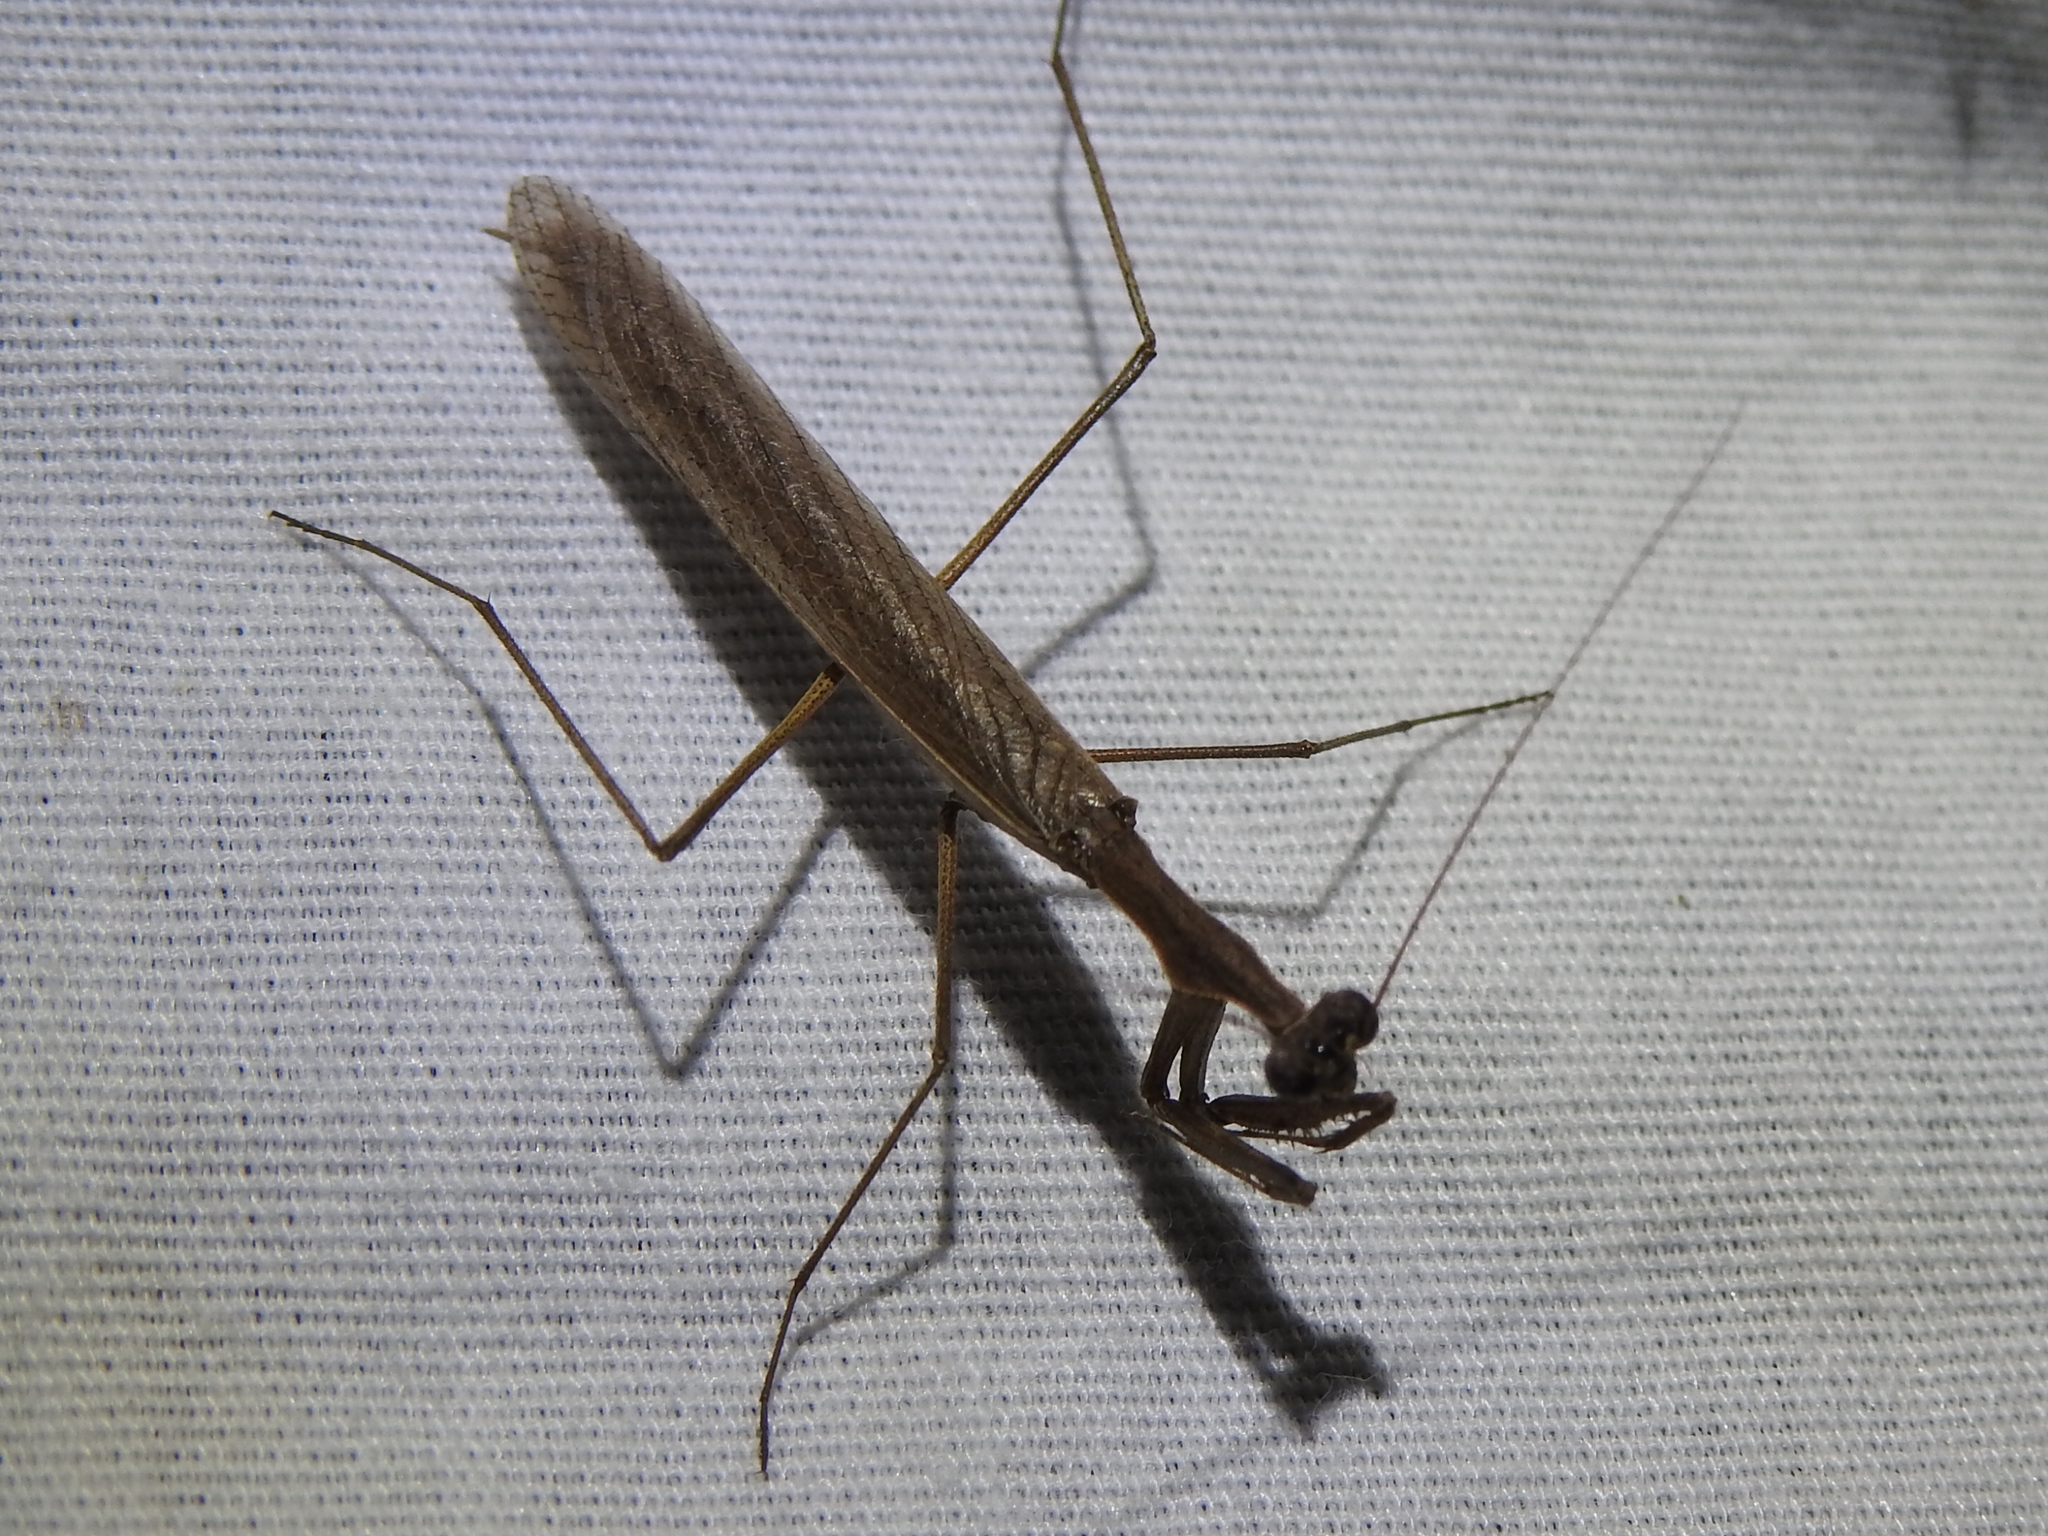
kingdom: Animalia
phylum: Arthropoda
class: Insecta
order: Mantodea
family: Thespidae
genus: Oligonicella
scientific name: Oligonicella scudderi
